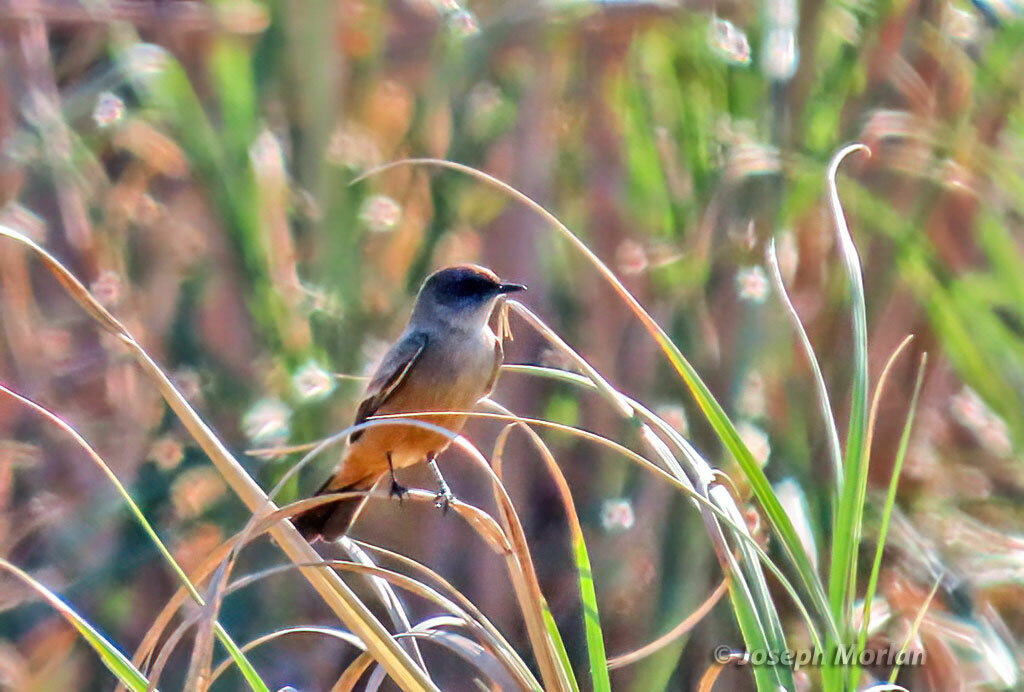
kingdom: Animalia
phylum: Chordata
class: Aves
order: Passeriformes
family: Tyrannidae
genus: Sayornis
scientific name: Sayornis saya
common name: Say's phoebe
